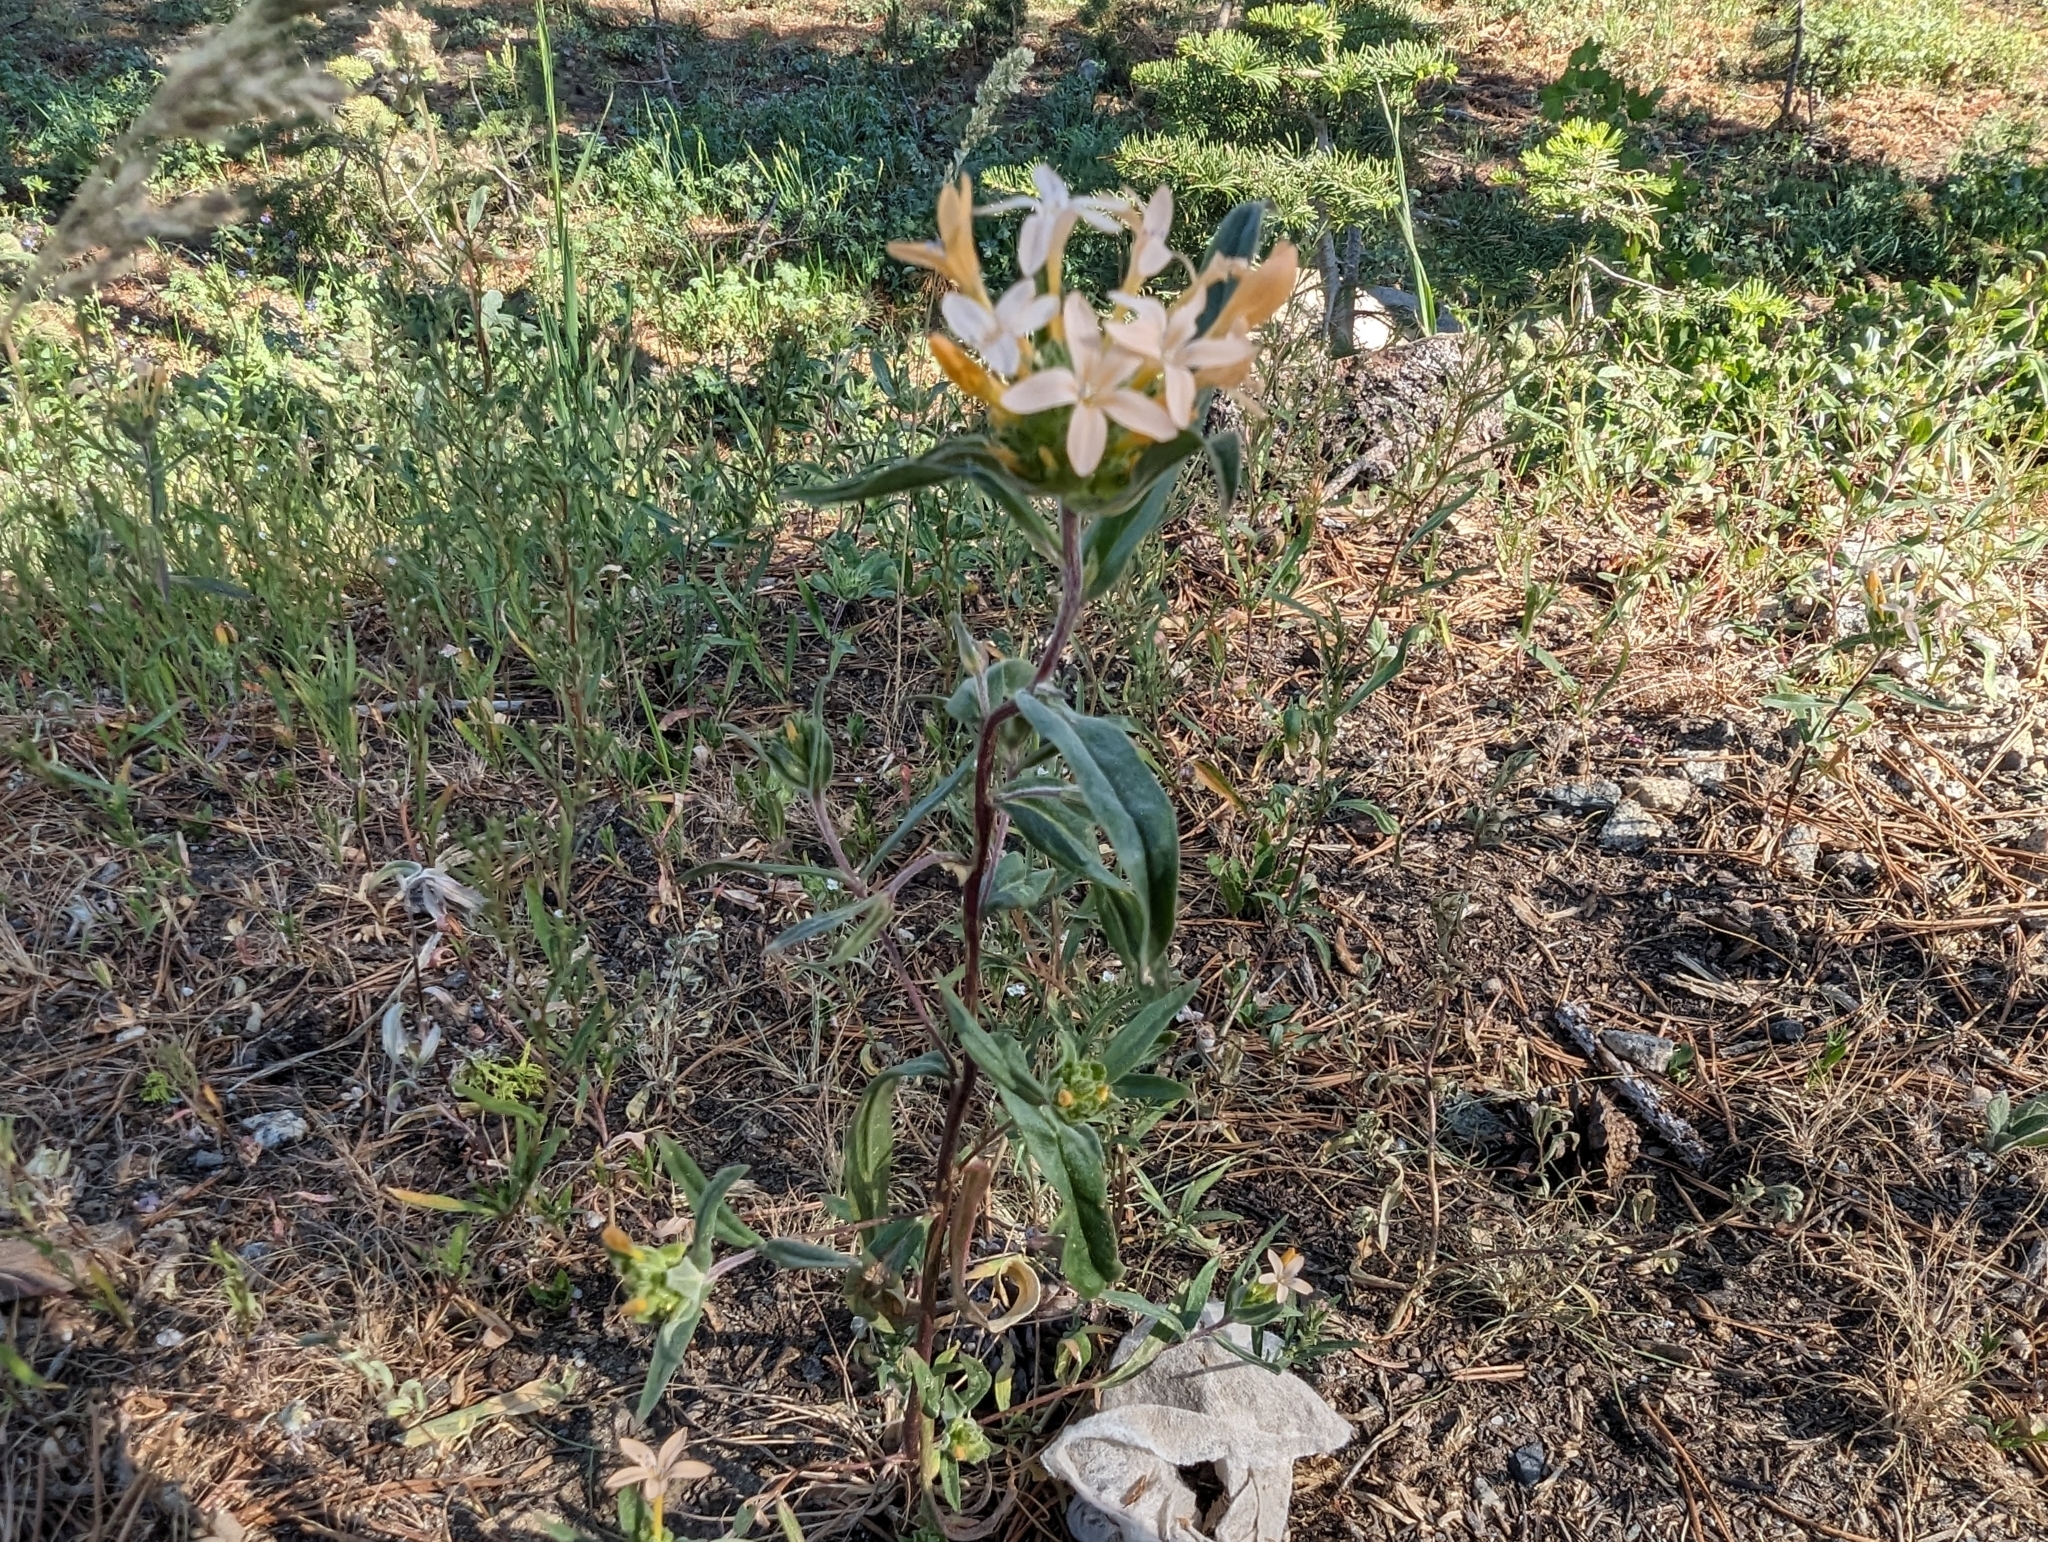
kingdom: Plantae
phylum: Tracheophyta
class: Magnoliopsida
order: Ericales
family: Polemoniaceae
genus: Collomia
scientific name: Collomia grandiflora
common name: California strawflower
